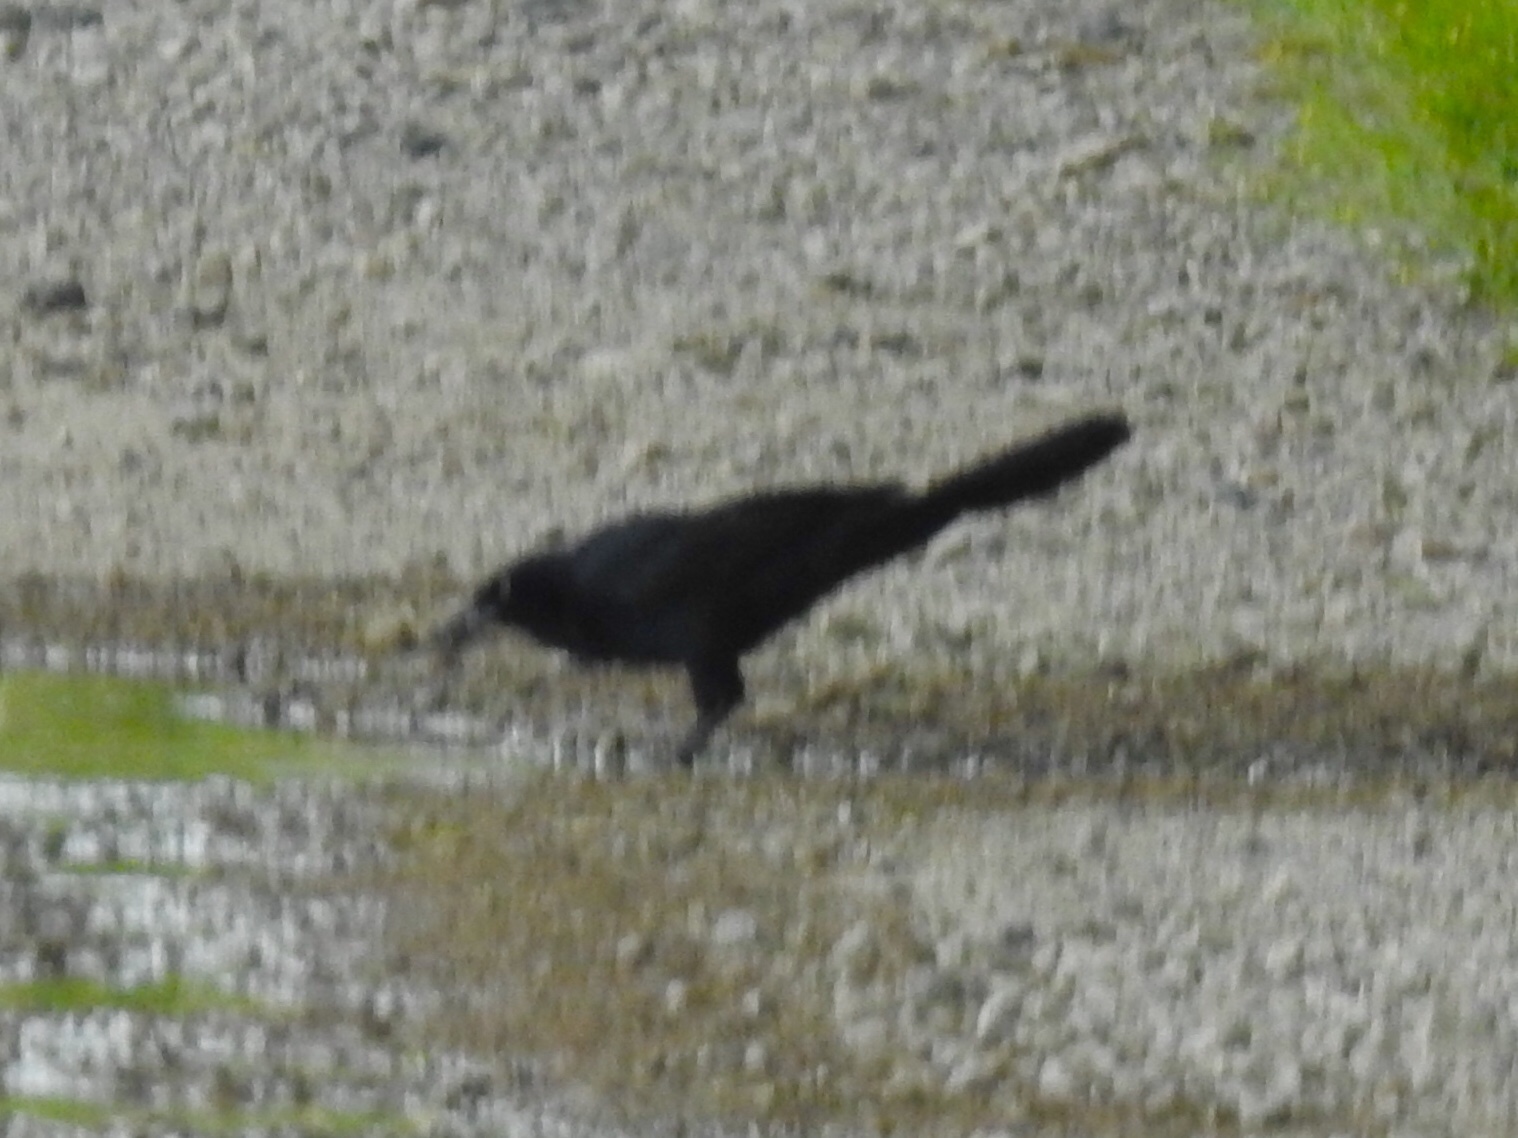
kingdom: Animalia
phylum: Chordata
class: Aves
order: Passeriformes
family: Icteridae
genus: Quiscalus
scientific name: Quiscalus mexicanus
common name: Great-tailed grackle
